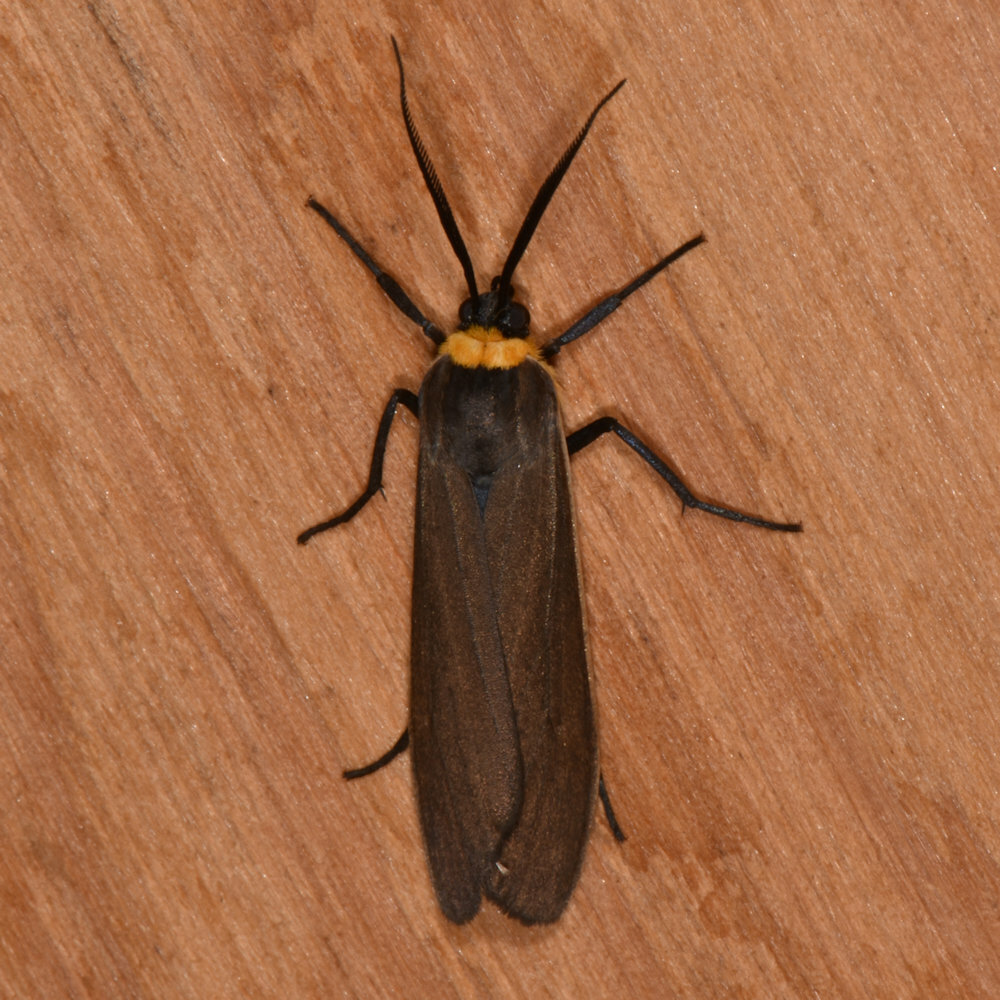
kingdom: Animalia
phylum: Arthropoda
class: Insecta
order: Lepidoptera
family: Erebidae
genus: Cisseps
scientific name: Cisseps fulvicollis
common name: Yellow-collared scape moth
